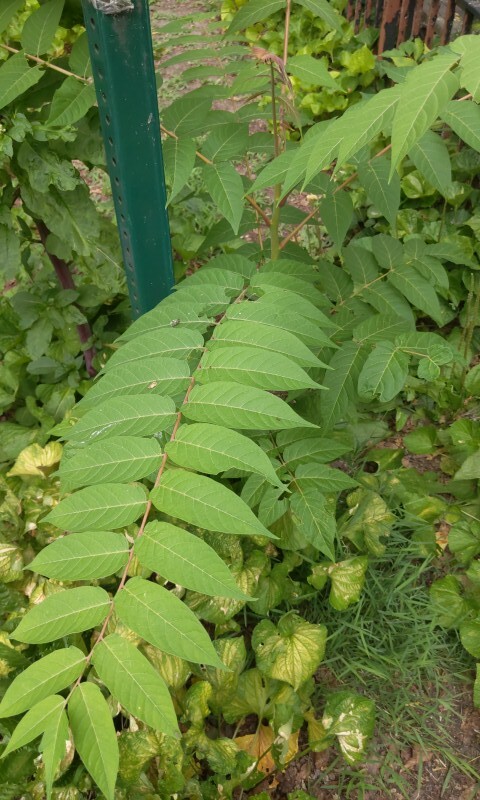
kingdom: Plantae
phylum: Tracheophyta
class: Magnoliopsida
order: Sapindales
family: Simaroubaceae
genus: Ailanthus
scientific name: Ailanthus altissima
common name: Tree-of-heaven
